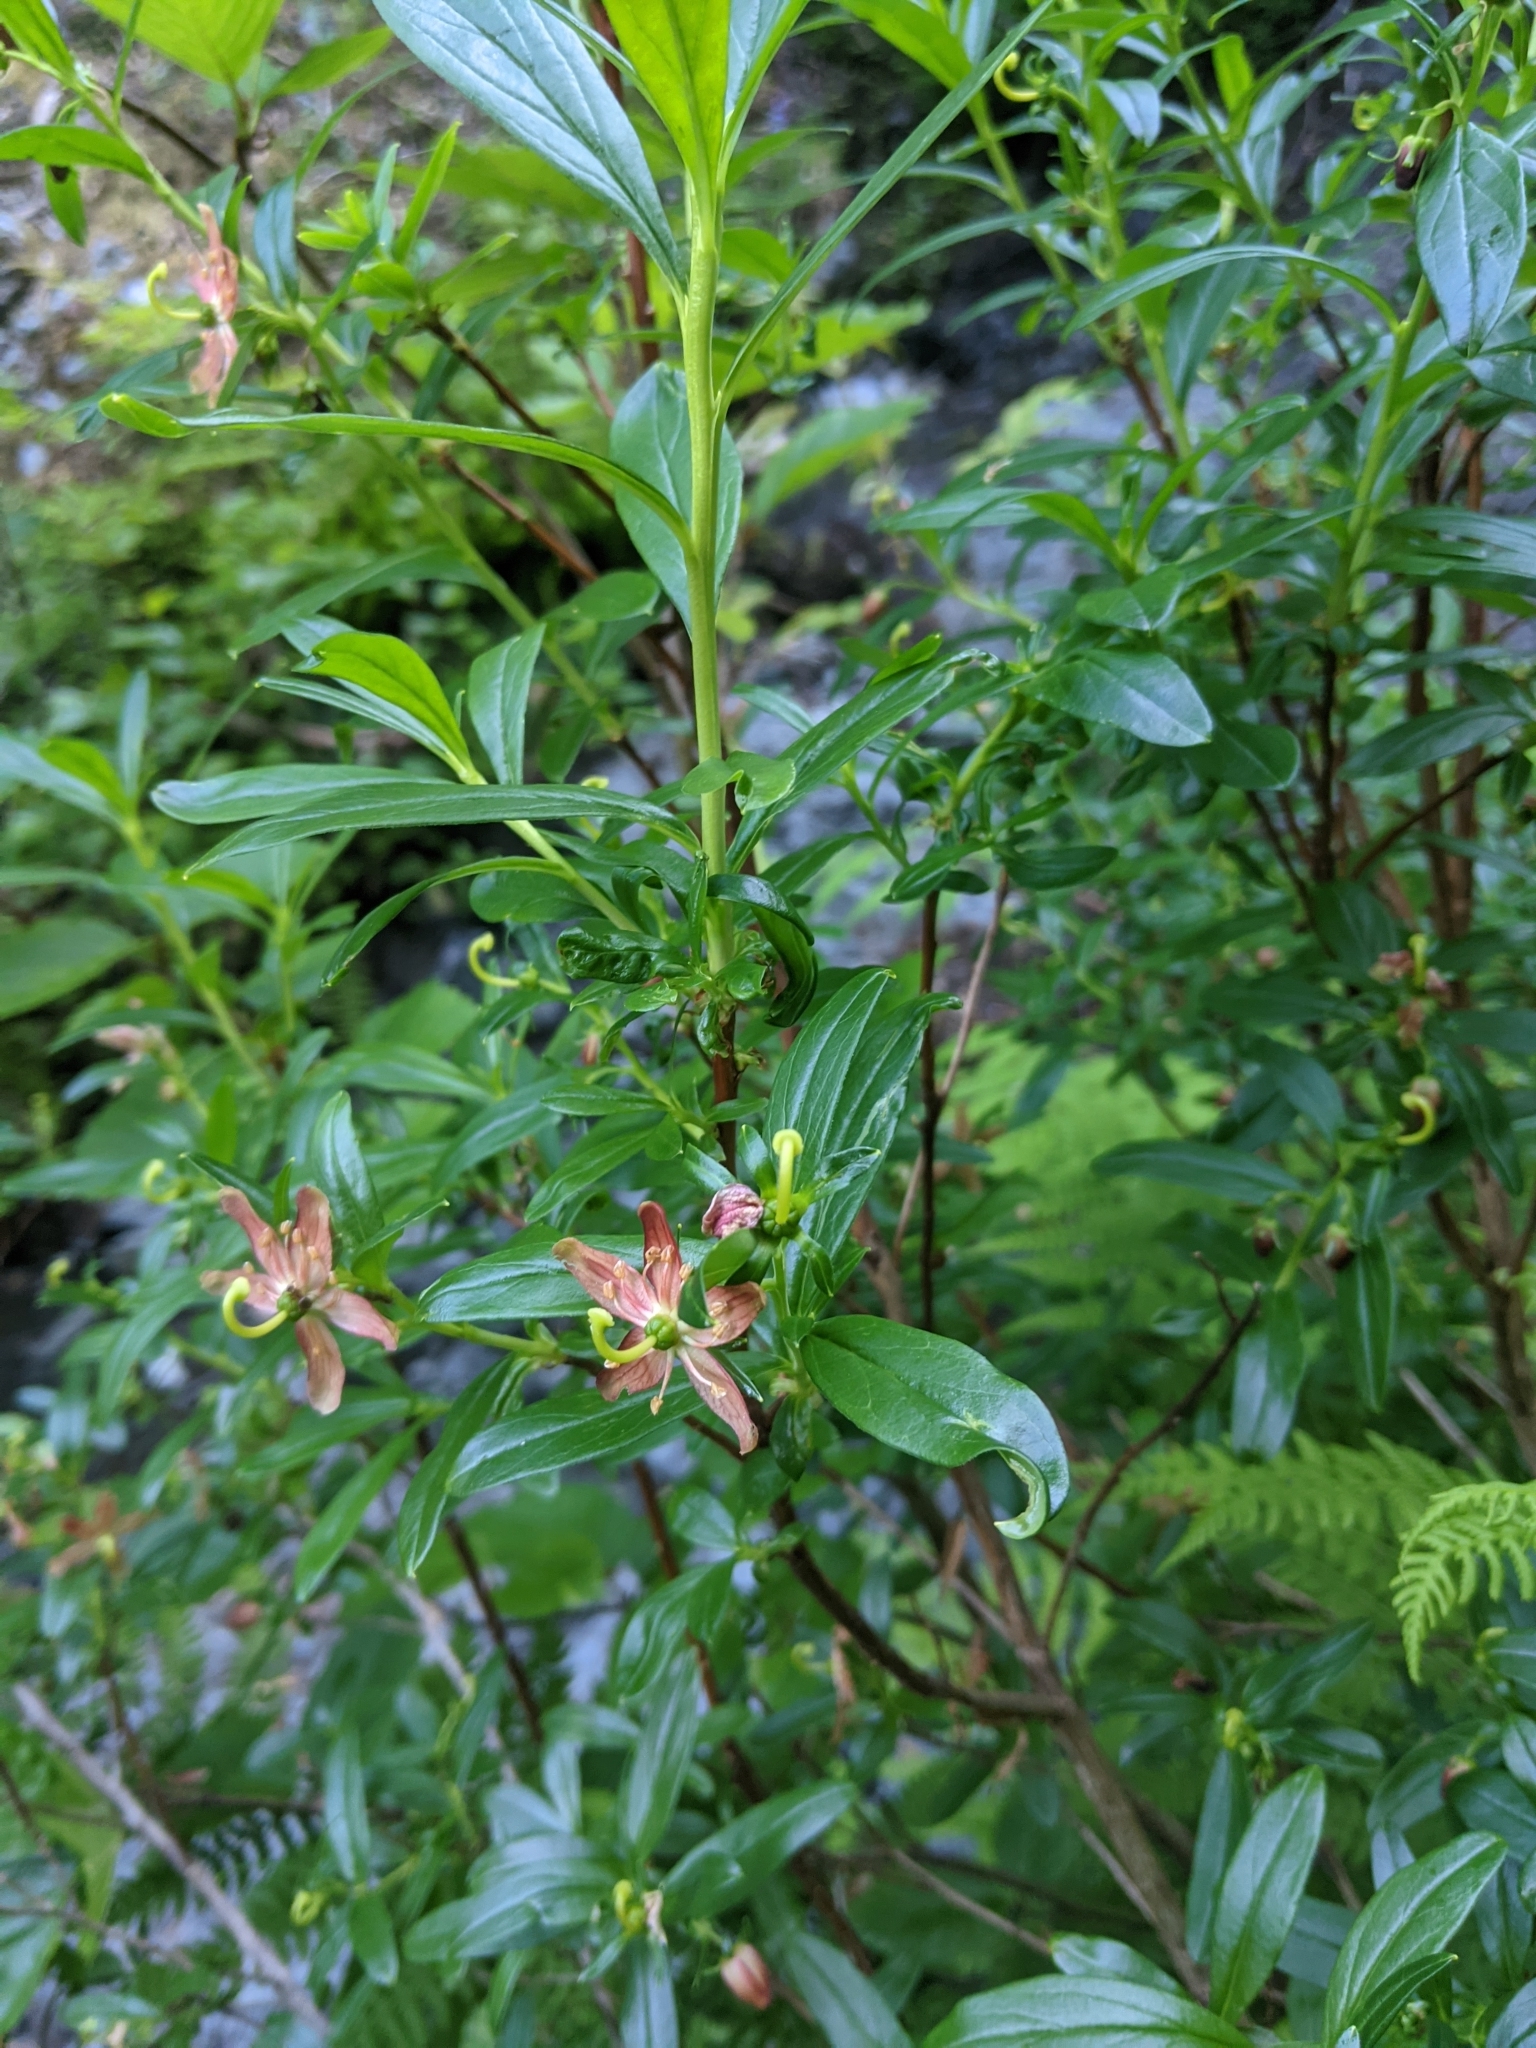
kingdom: Plantae
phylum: Tracheophyta
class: Magnoliopsida
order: Ericales
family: Ericaceae
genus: Elliottia
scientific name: Elliottia pyroliflora
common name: Copperbush
